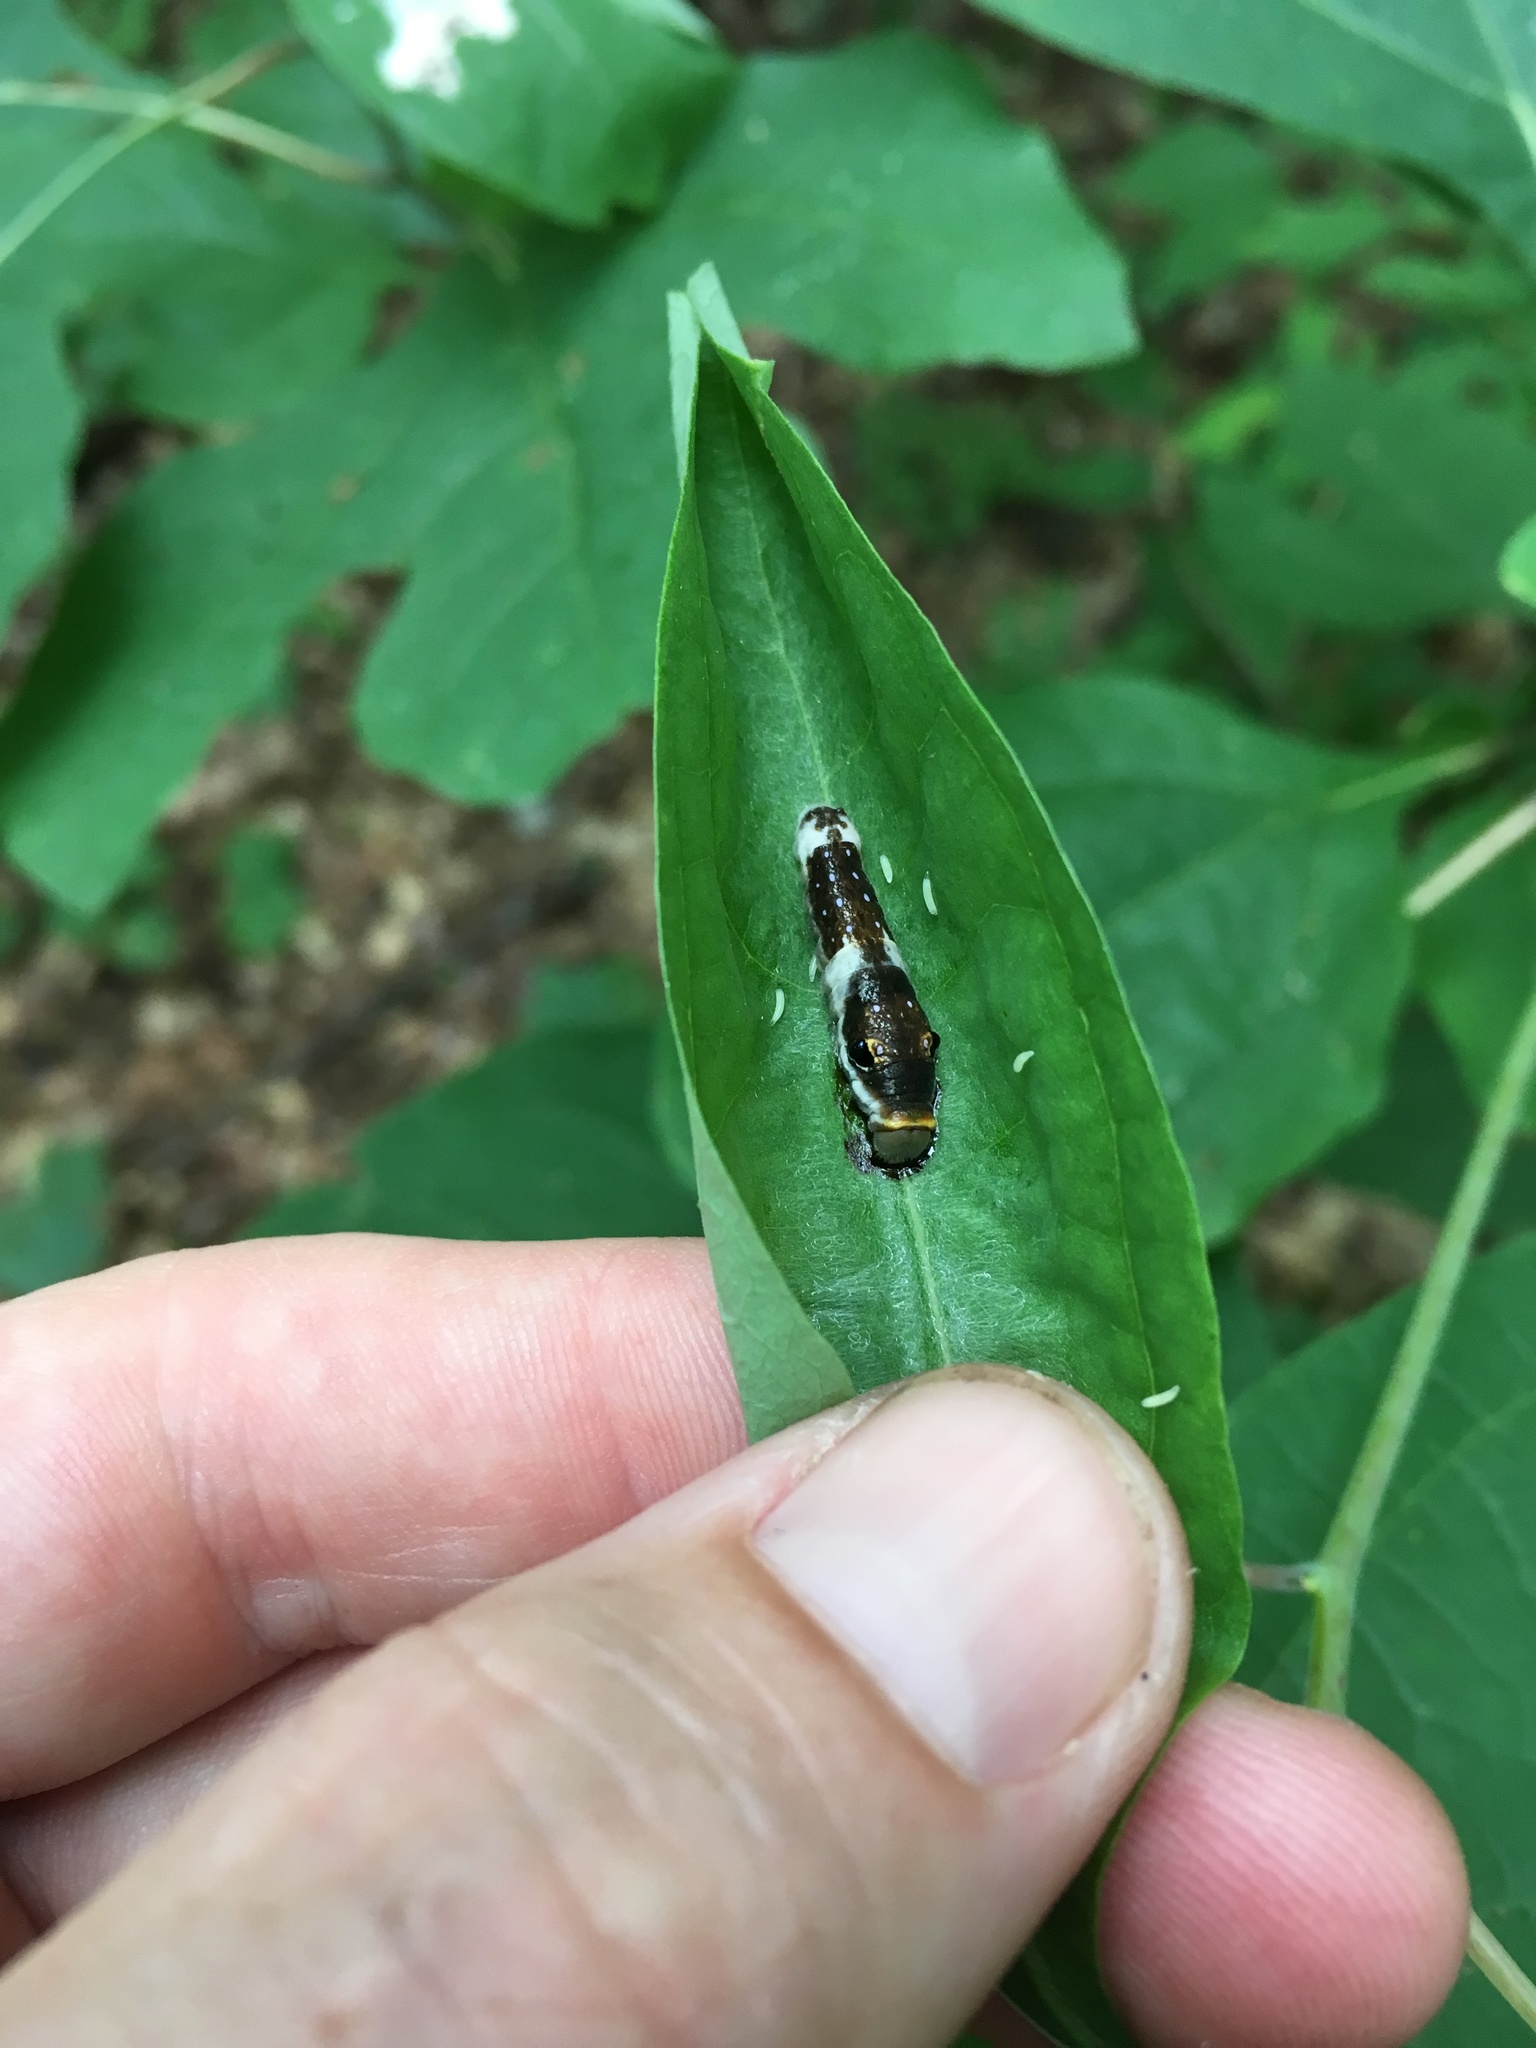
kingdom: Animalia
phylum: Arthropoda
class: Insecta
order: Lepidoptera
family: Papilionidae
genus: Papilio
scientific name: Papilio troilus
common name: Spicebush swallowtail
